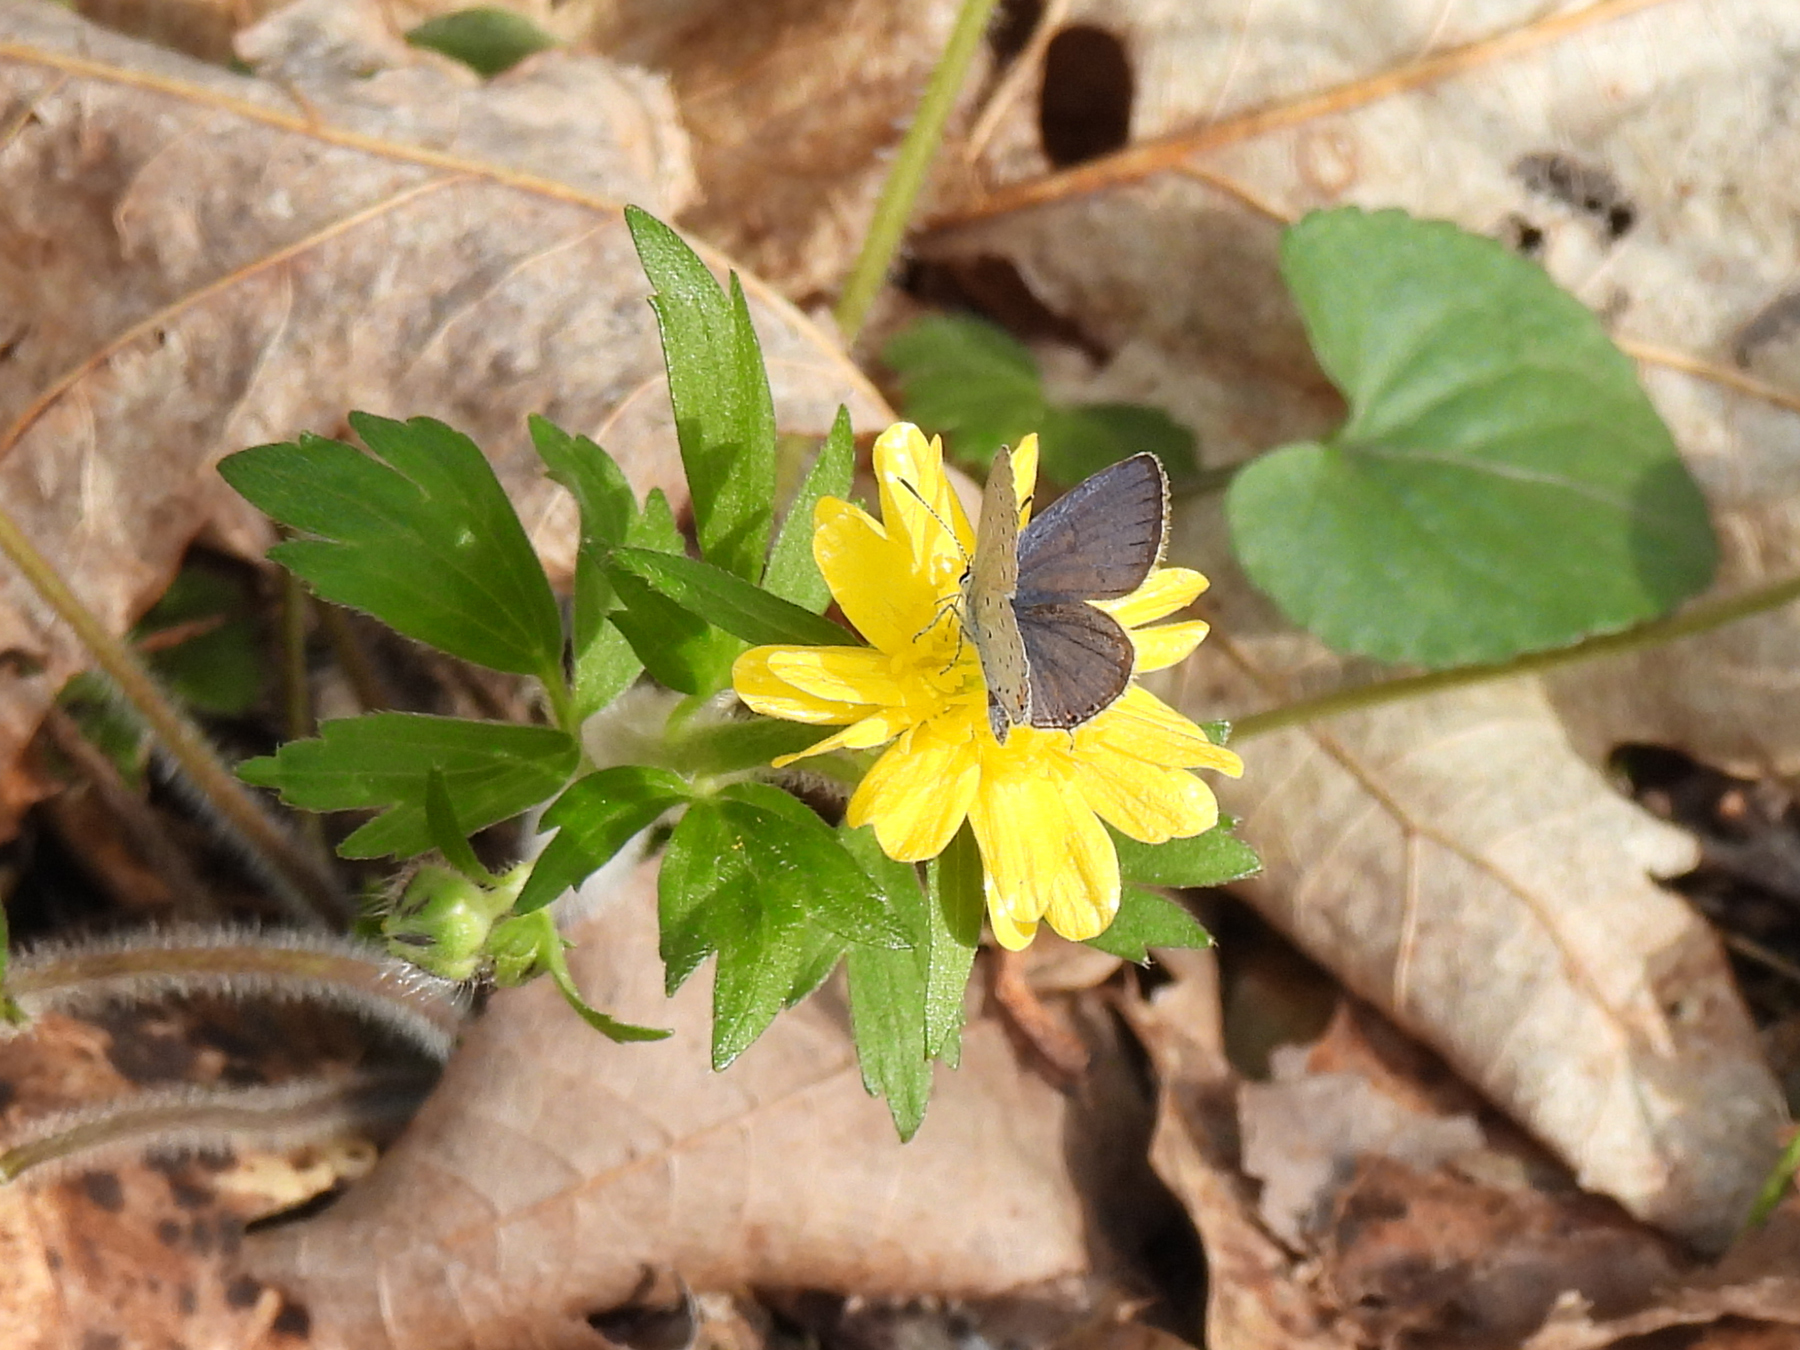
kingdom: Animalia
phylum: Arthropoda
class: Insecta
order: Lepidoptera
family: Lycaenidae
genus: Elkalyce
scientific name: Elkalyce comyntas
